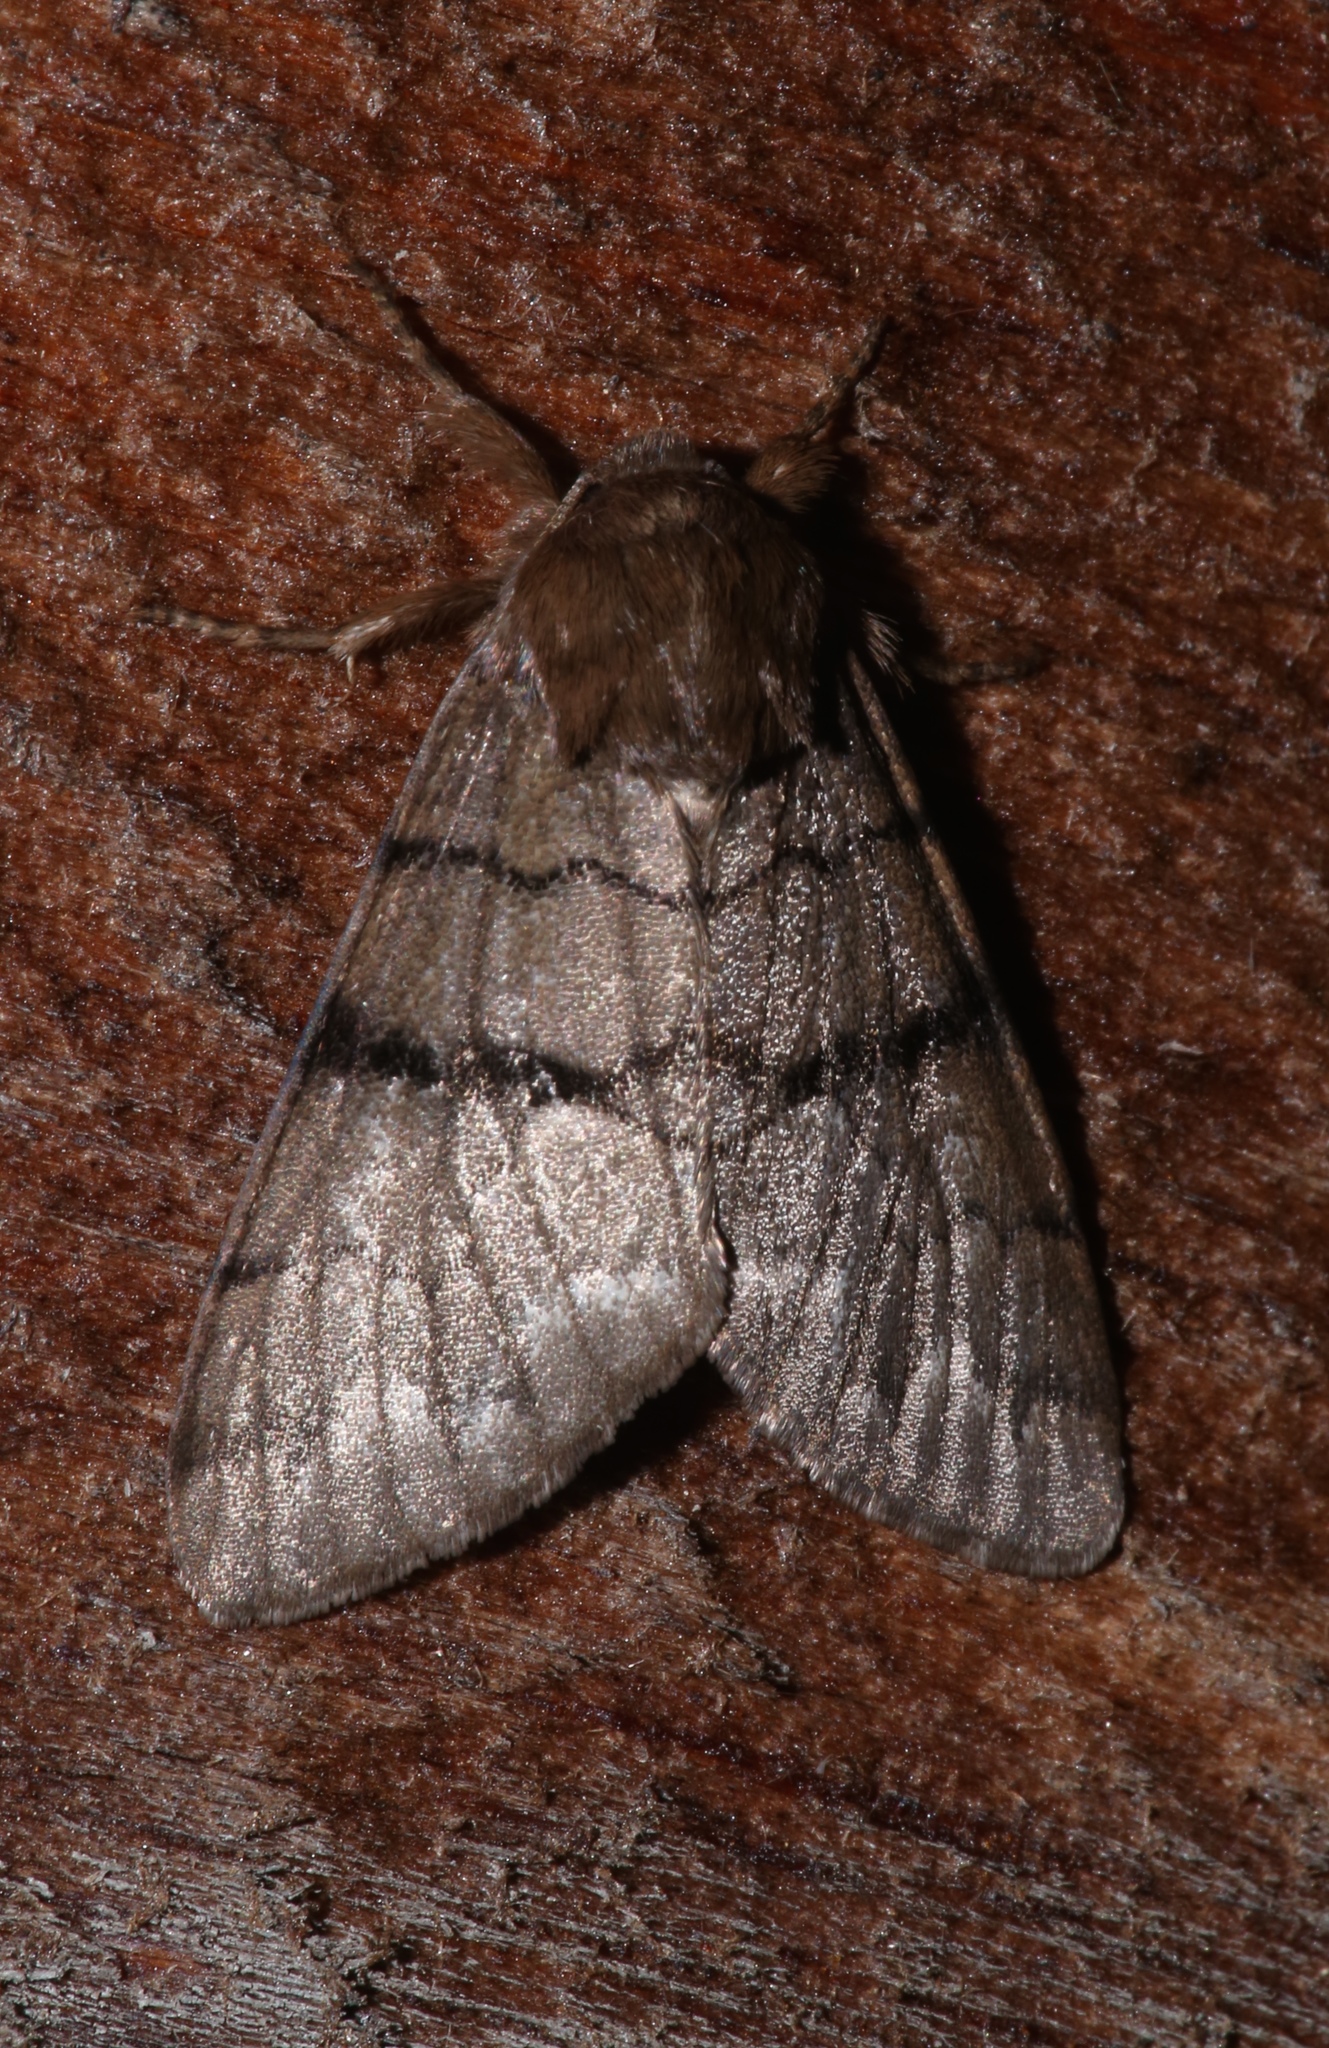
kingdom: Animalia
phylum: Arthropoda
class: Insecta
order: Lepidoptera
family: Noctuidae
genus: Panthea
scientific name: Panthea furcilla
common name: Eastern panthea moth
